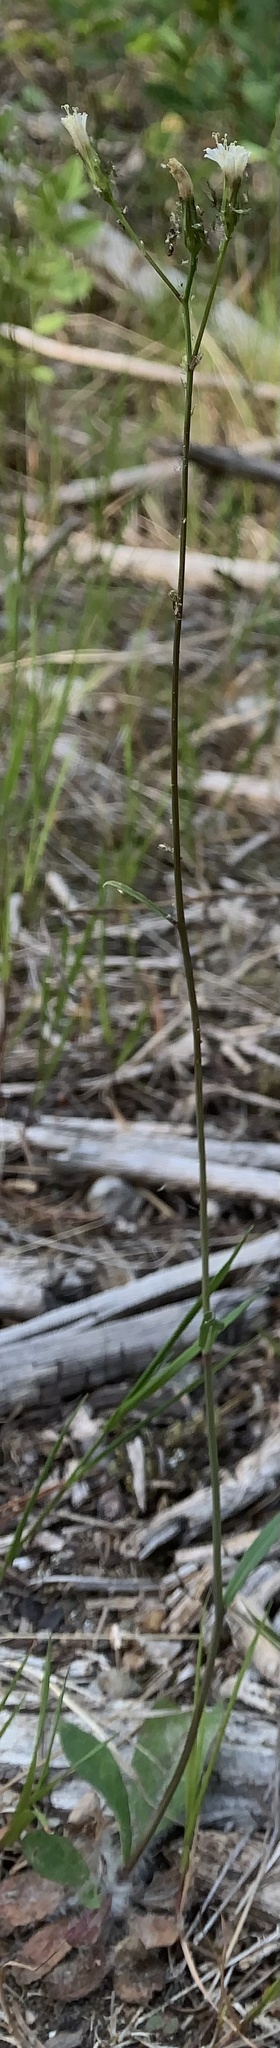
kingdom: Plantae
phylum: Tracheophyta
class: Magnoliopsida
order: Asterales
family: Asteraceae
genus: Hieracium
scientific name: Hieracium albiflorum
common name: White hawkweed
